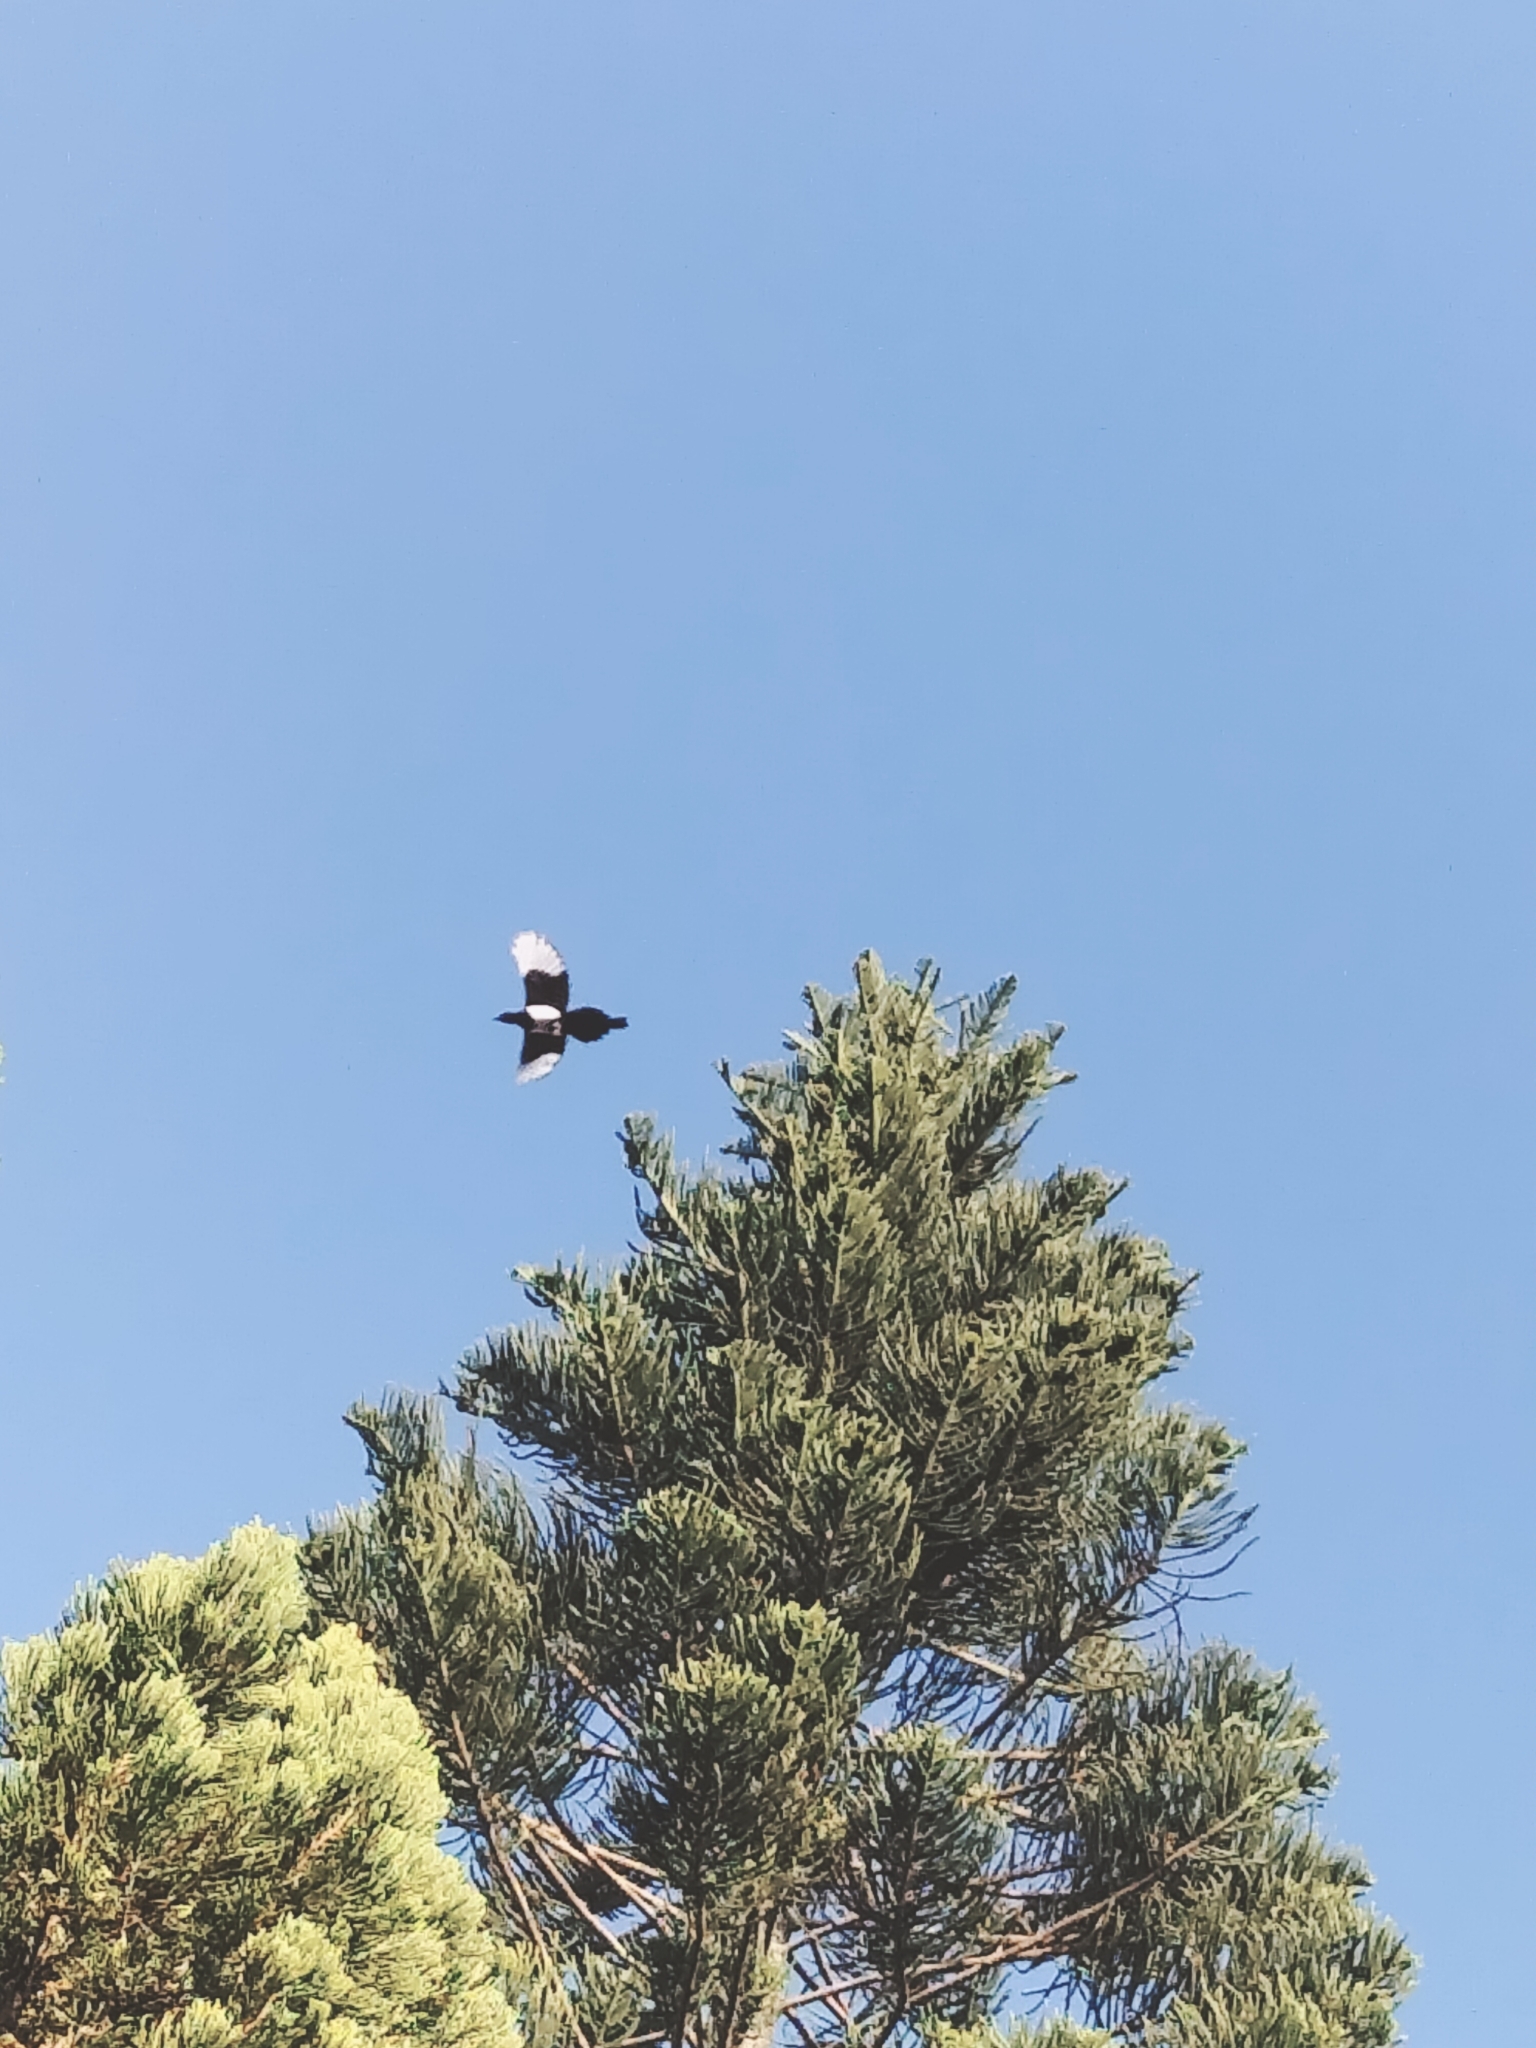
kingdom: Animalia
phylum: Chordata
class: Aves
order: Passeriformes
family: Corvidae
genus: Pica
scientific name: Pica serica
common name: Oriental magpie
